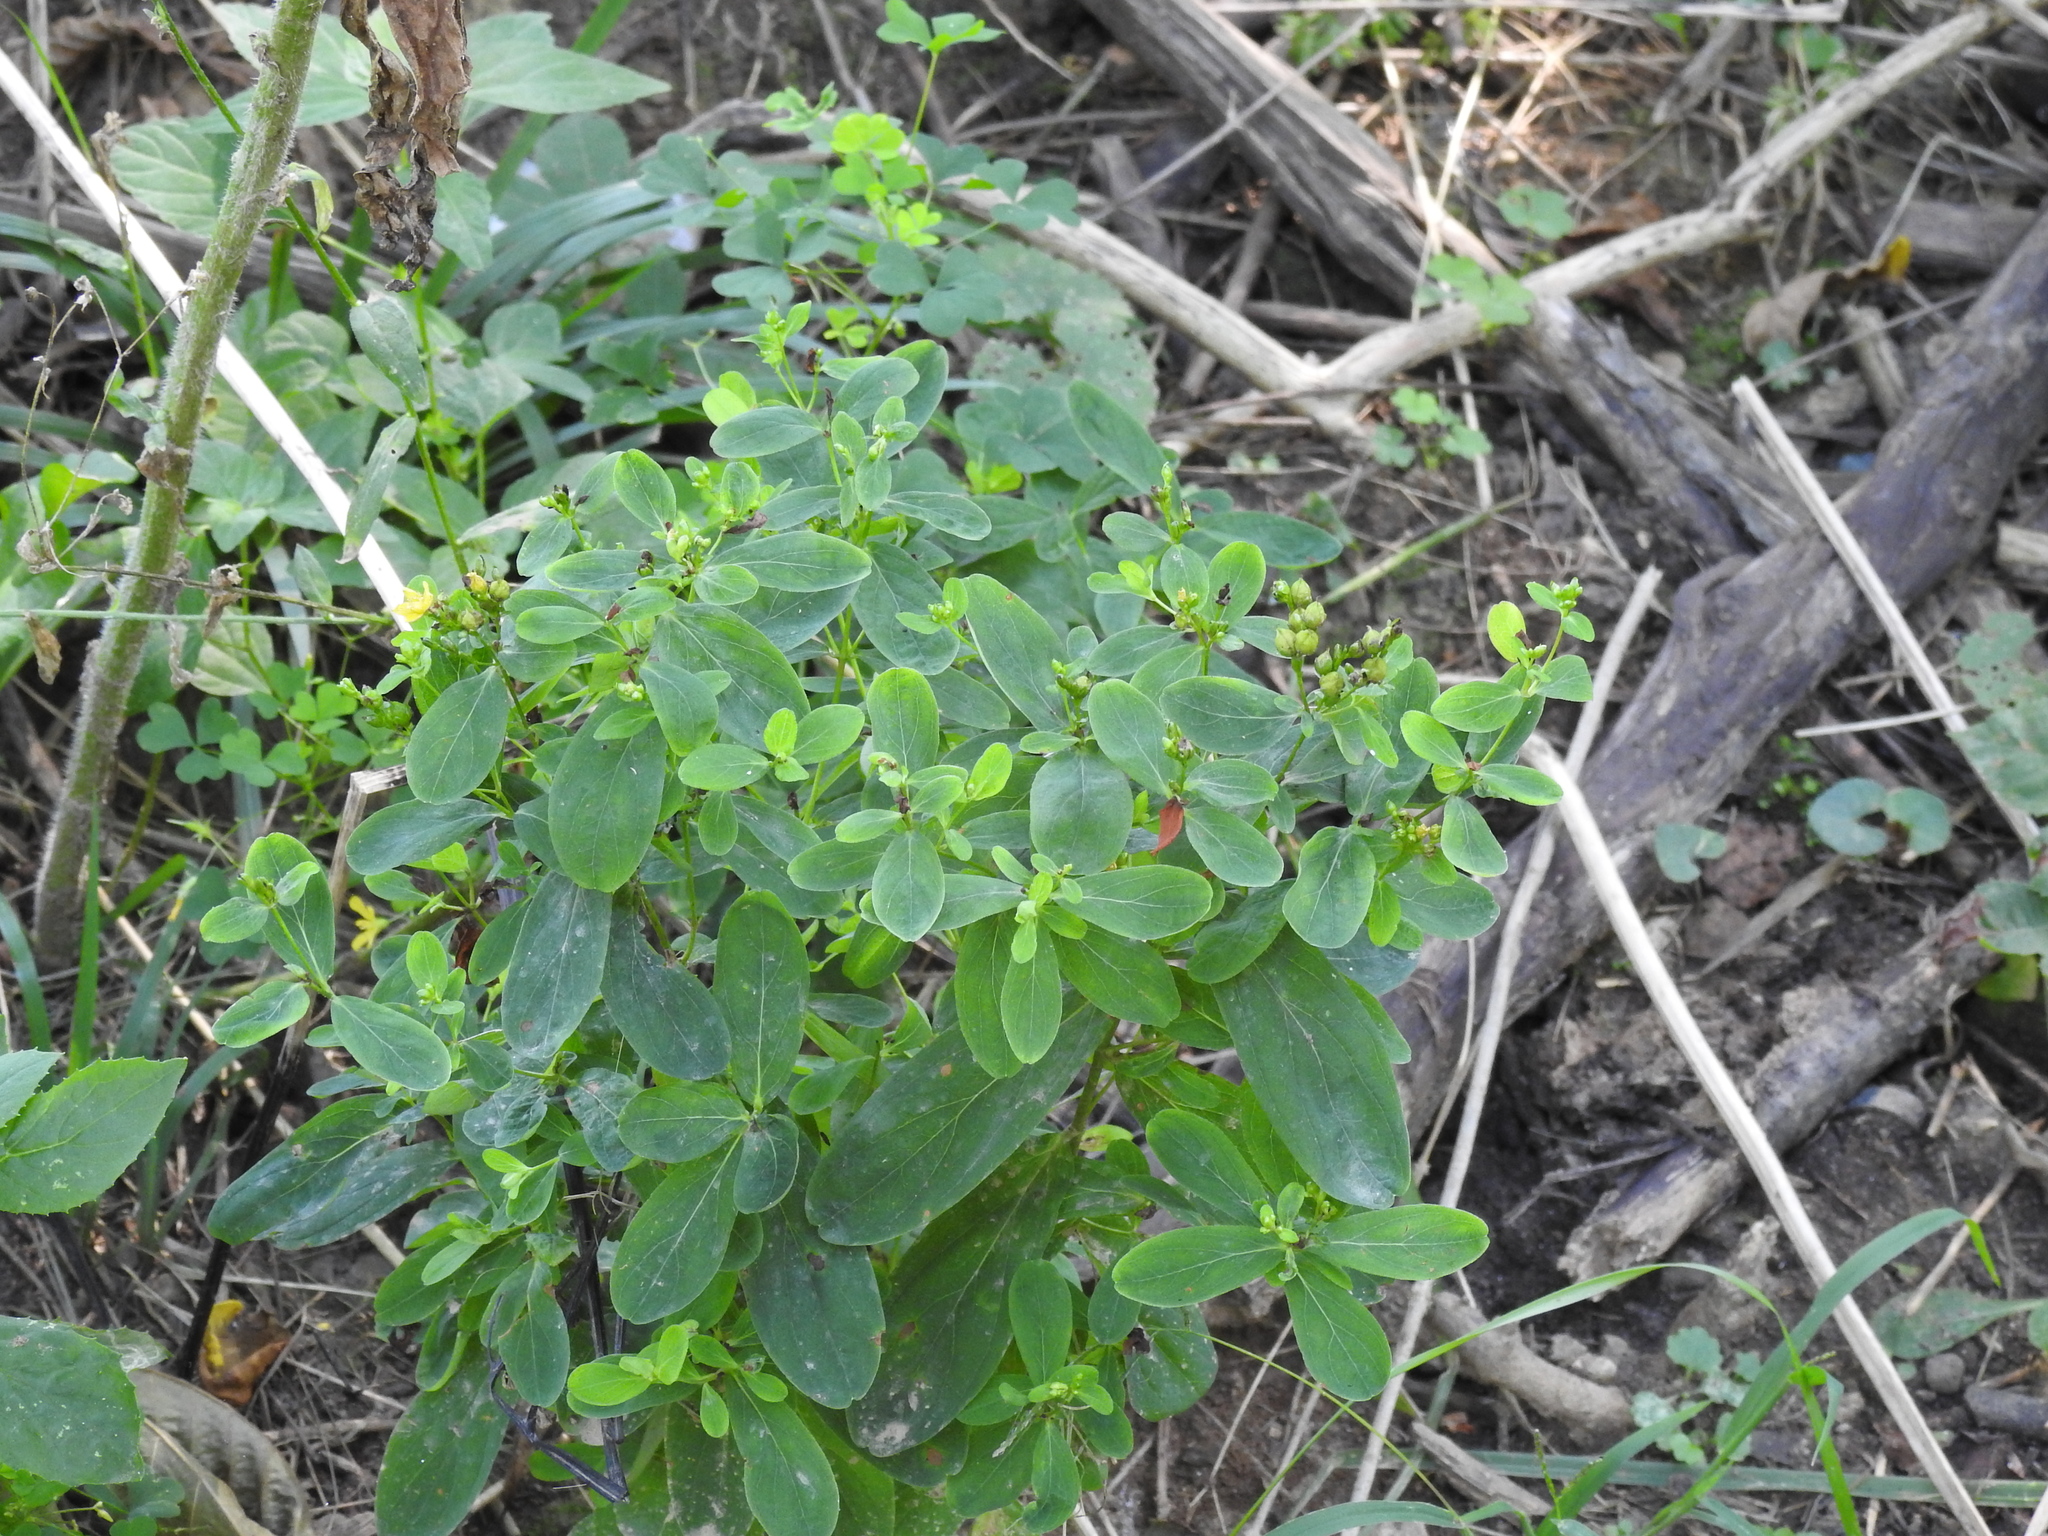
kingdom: Plantae
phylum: Tracheophyta
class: Magnoliopsida
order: Malpighiales
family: Hypericaceae
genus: Hypericum
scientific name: Hypericum punctatum
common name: Spotted st. john's-wort
